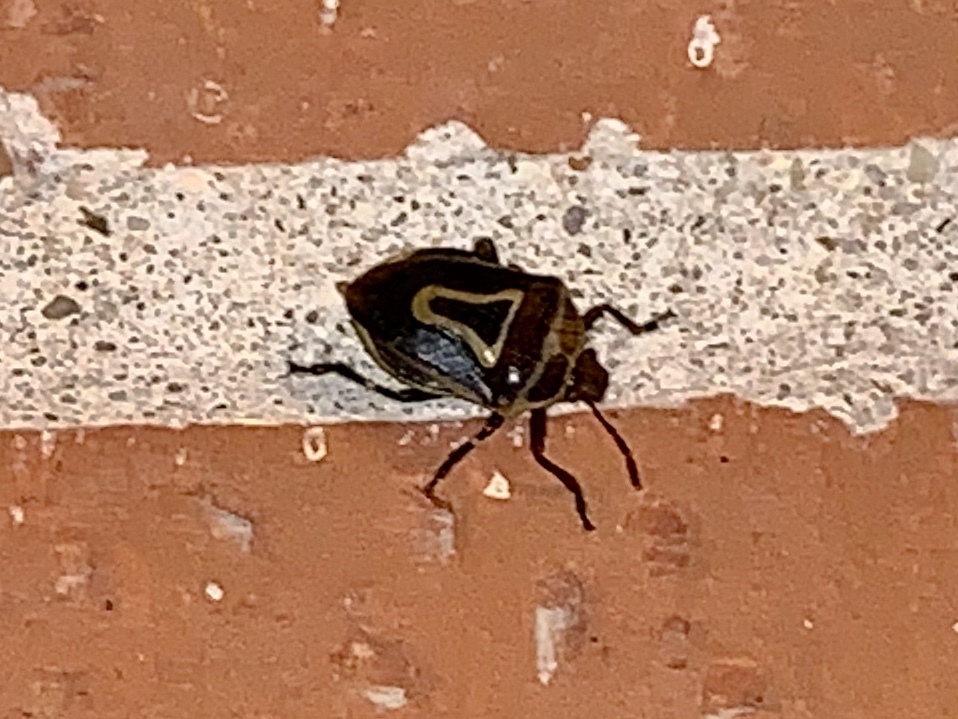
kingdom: Animalia
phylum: Arthropoda
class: Insecta
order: Hemiptera
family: Pentatomidae
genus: Perillus
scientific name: Perillus bioculatus
